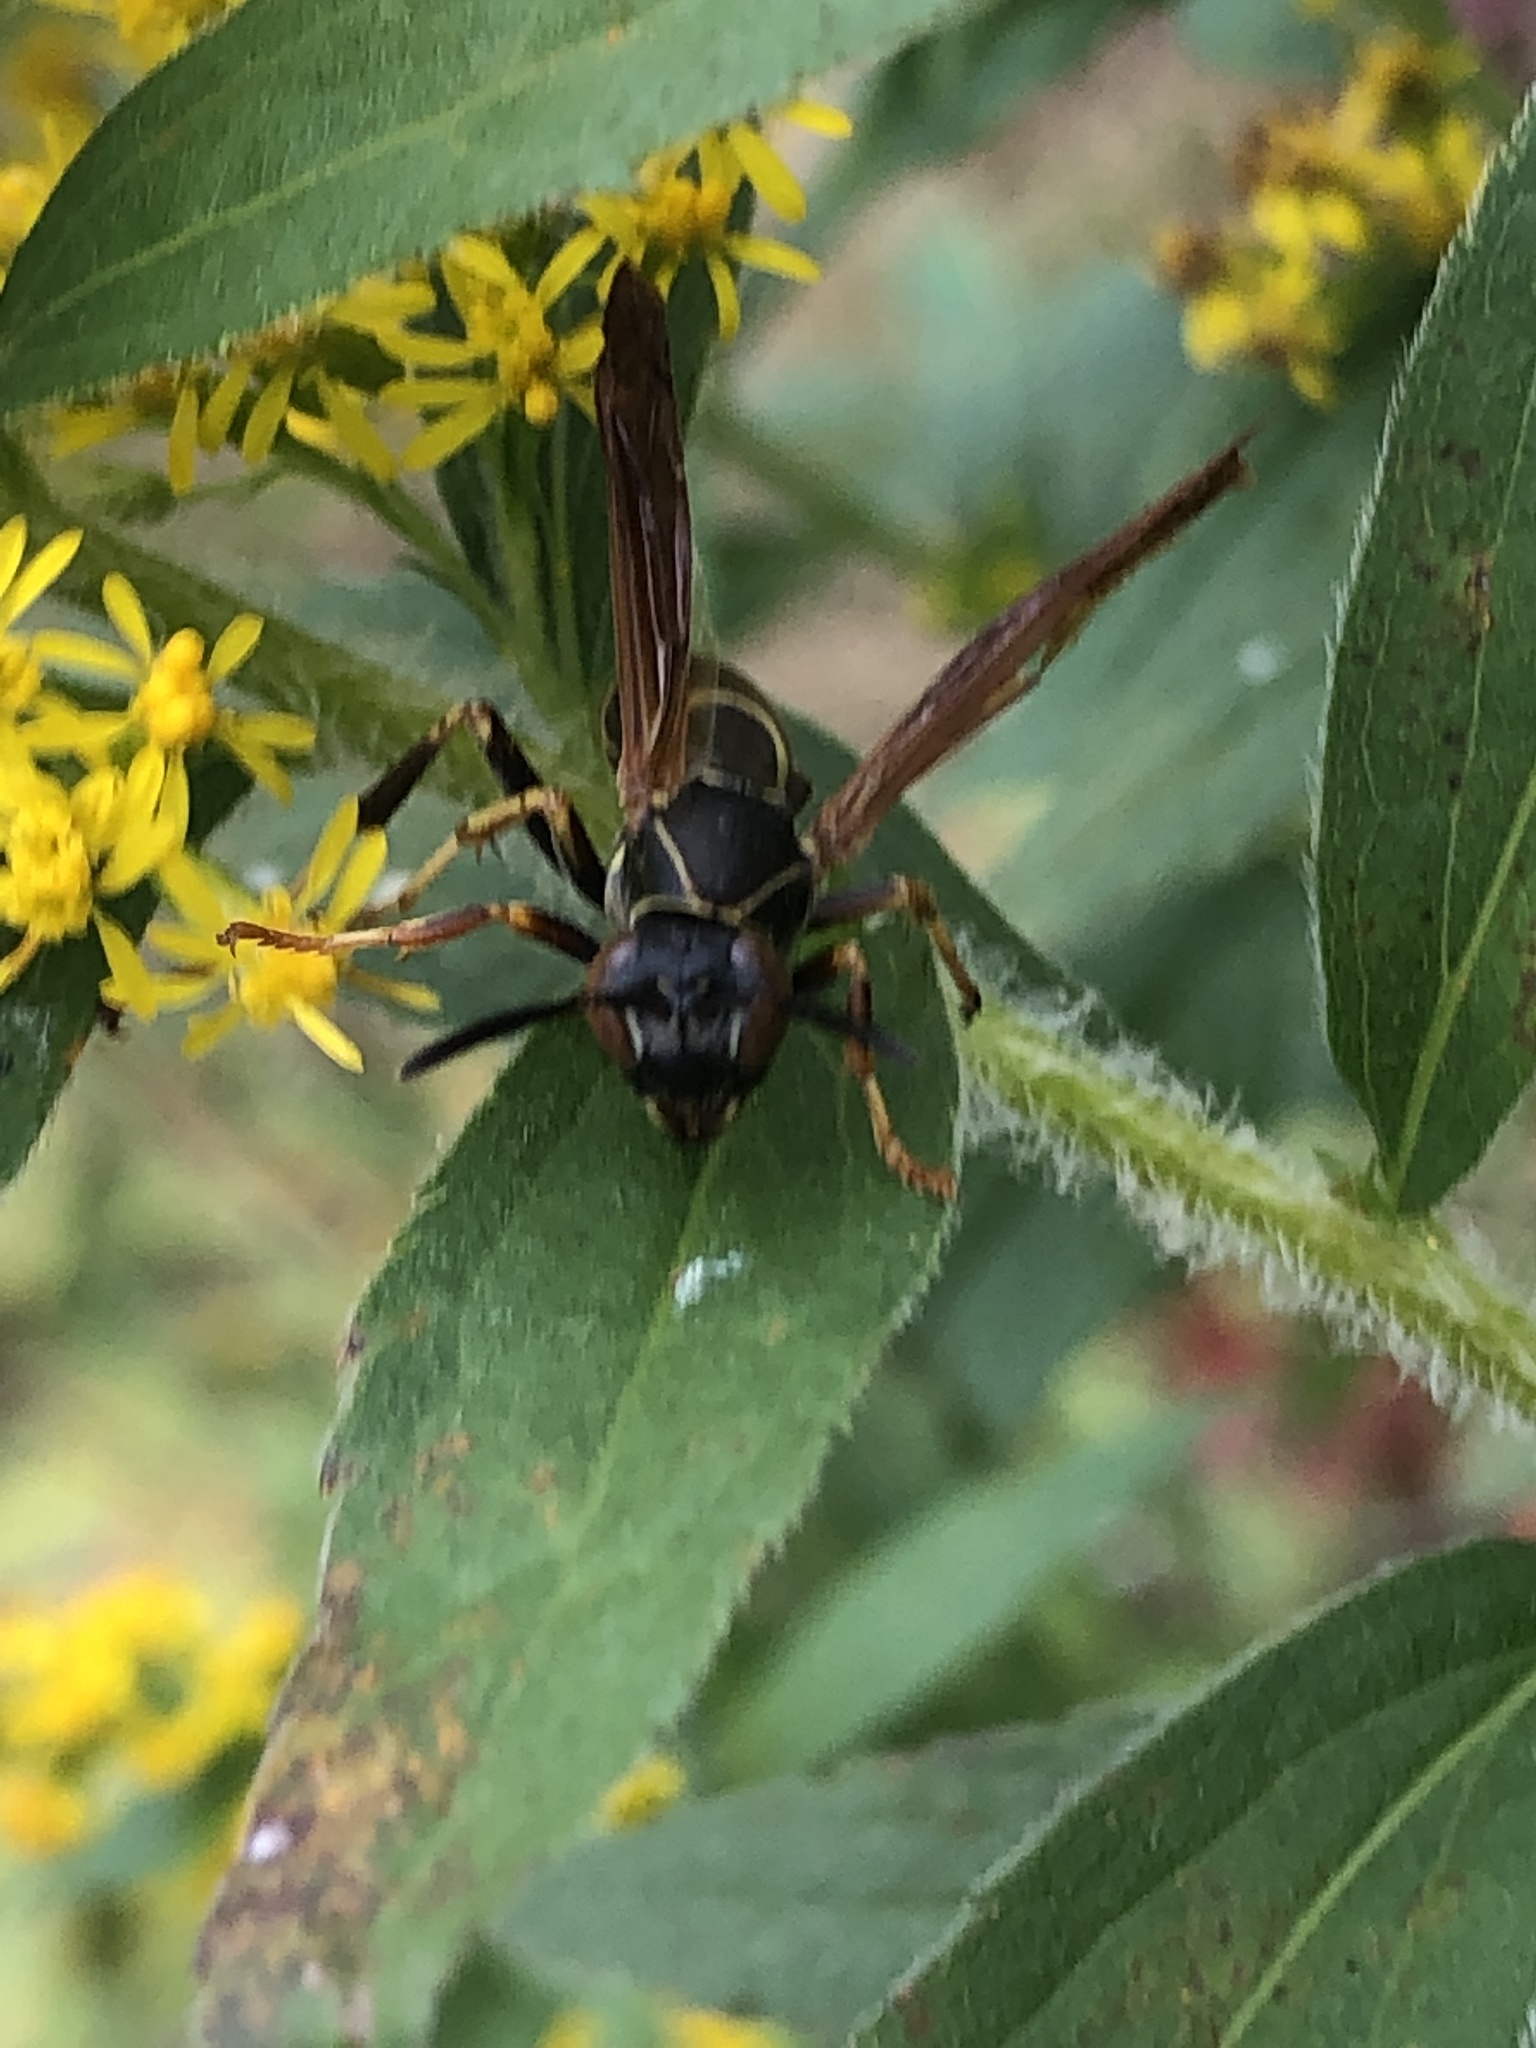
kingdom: Animalia
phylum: Arthropoda
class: Insecta
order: Hymenoptera
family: Eumenidae
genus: Polistes
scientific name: Polistes fuscatus
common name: Dark paper wasp
